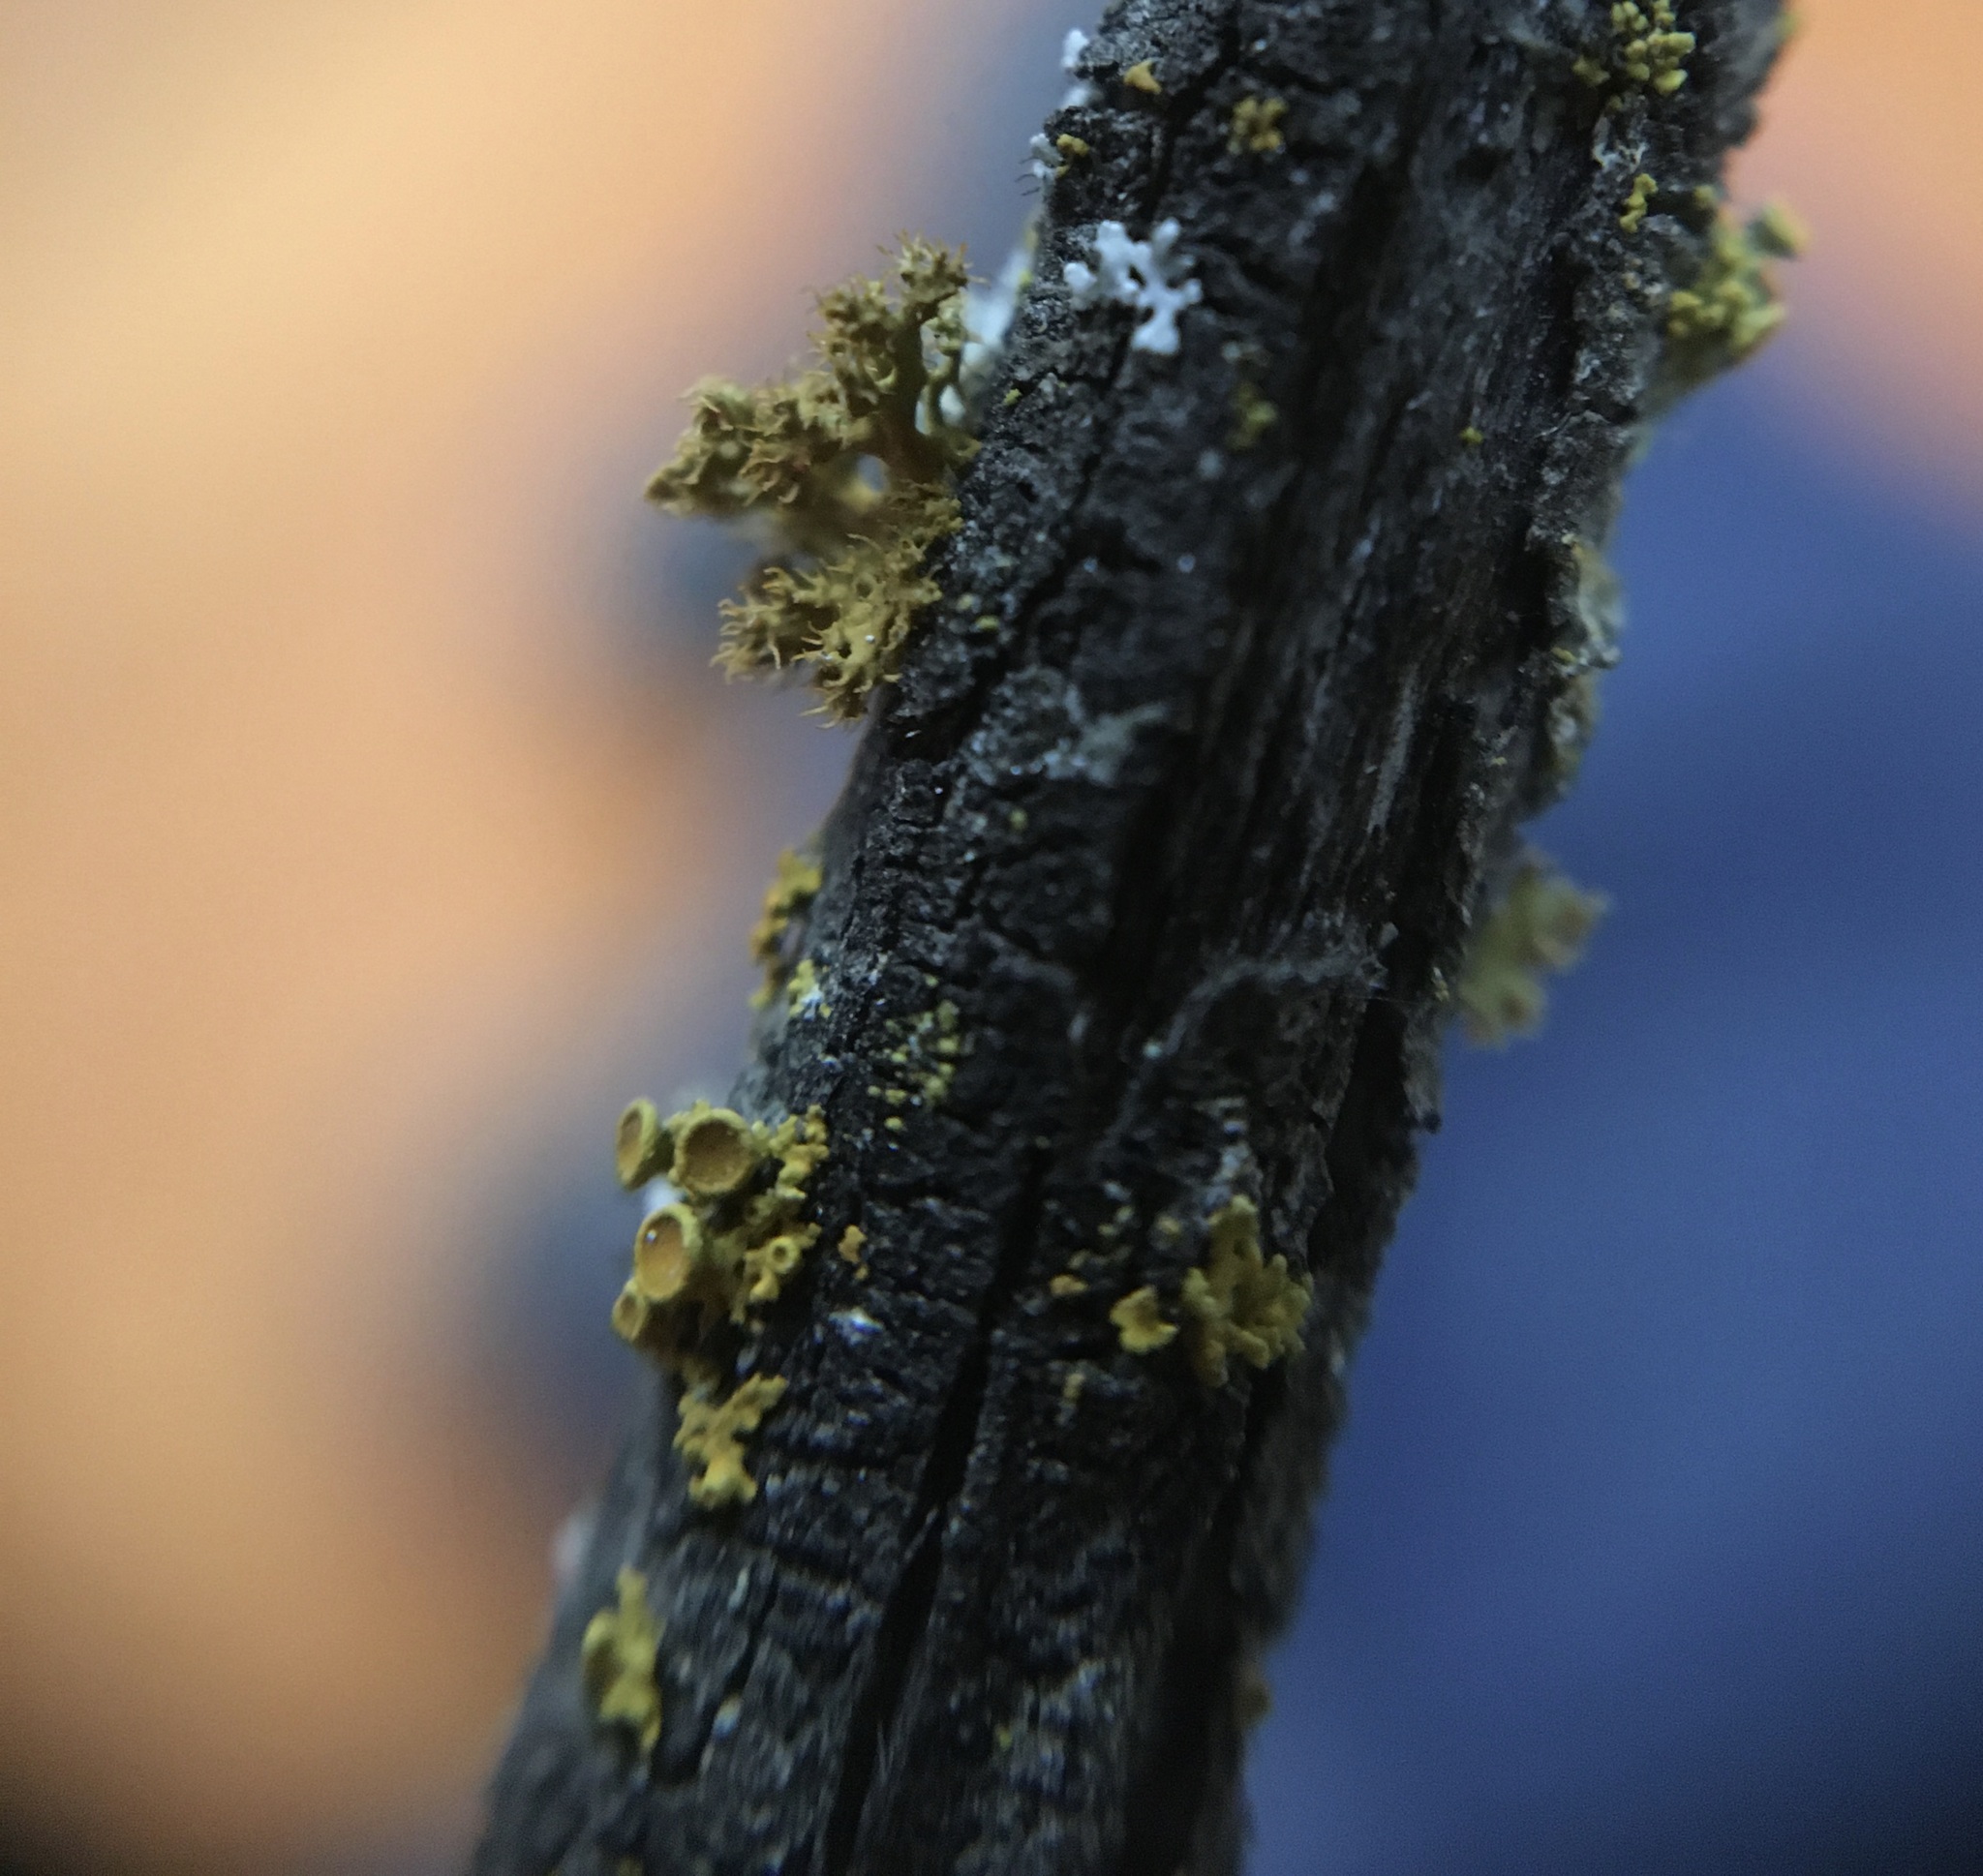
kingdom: Fungi
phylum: Ascomycota
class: Lecanoromycetes
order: Teloschistales
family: Teloschistaceae
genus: Niorma
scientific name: Niorma chrysophthalma
